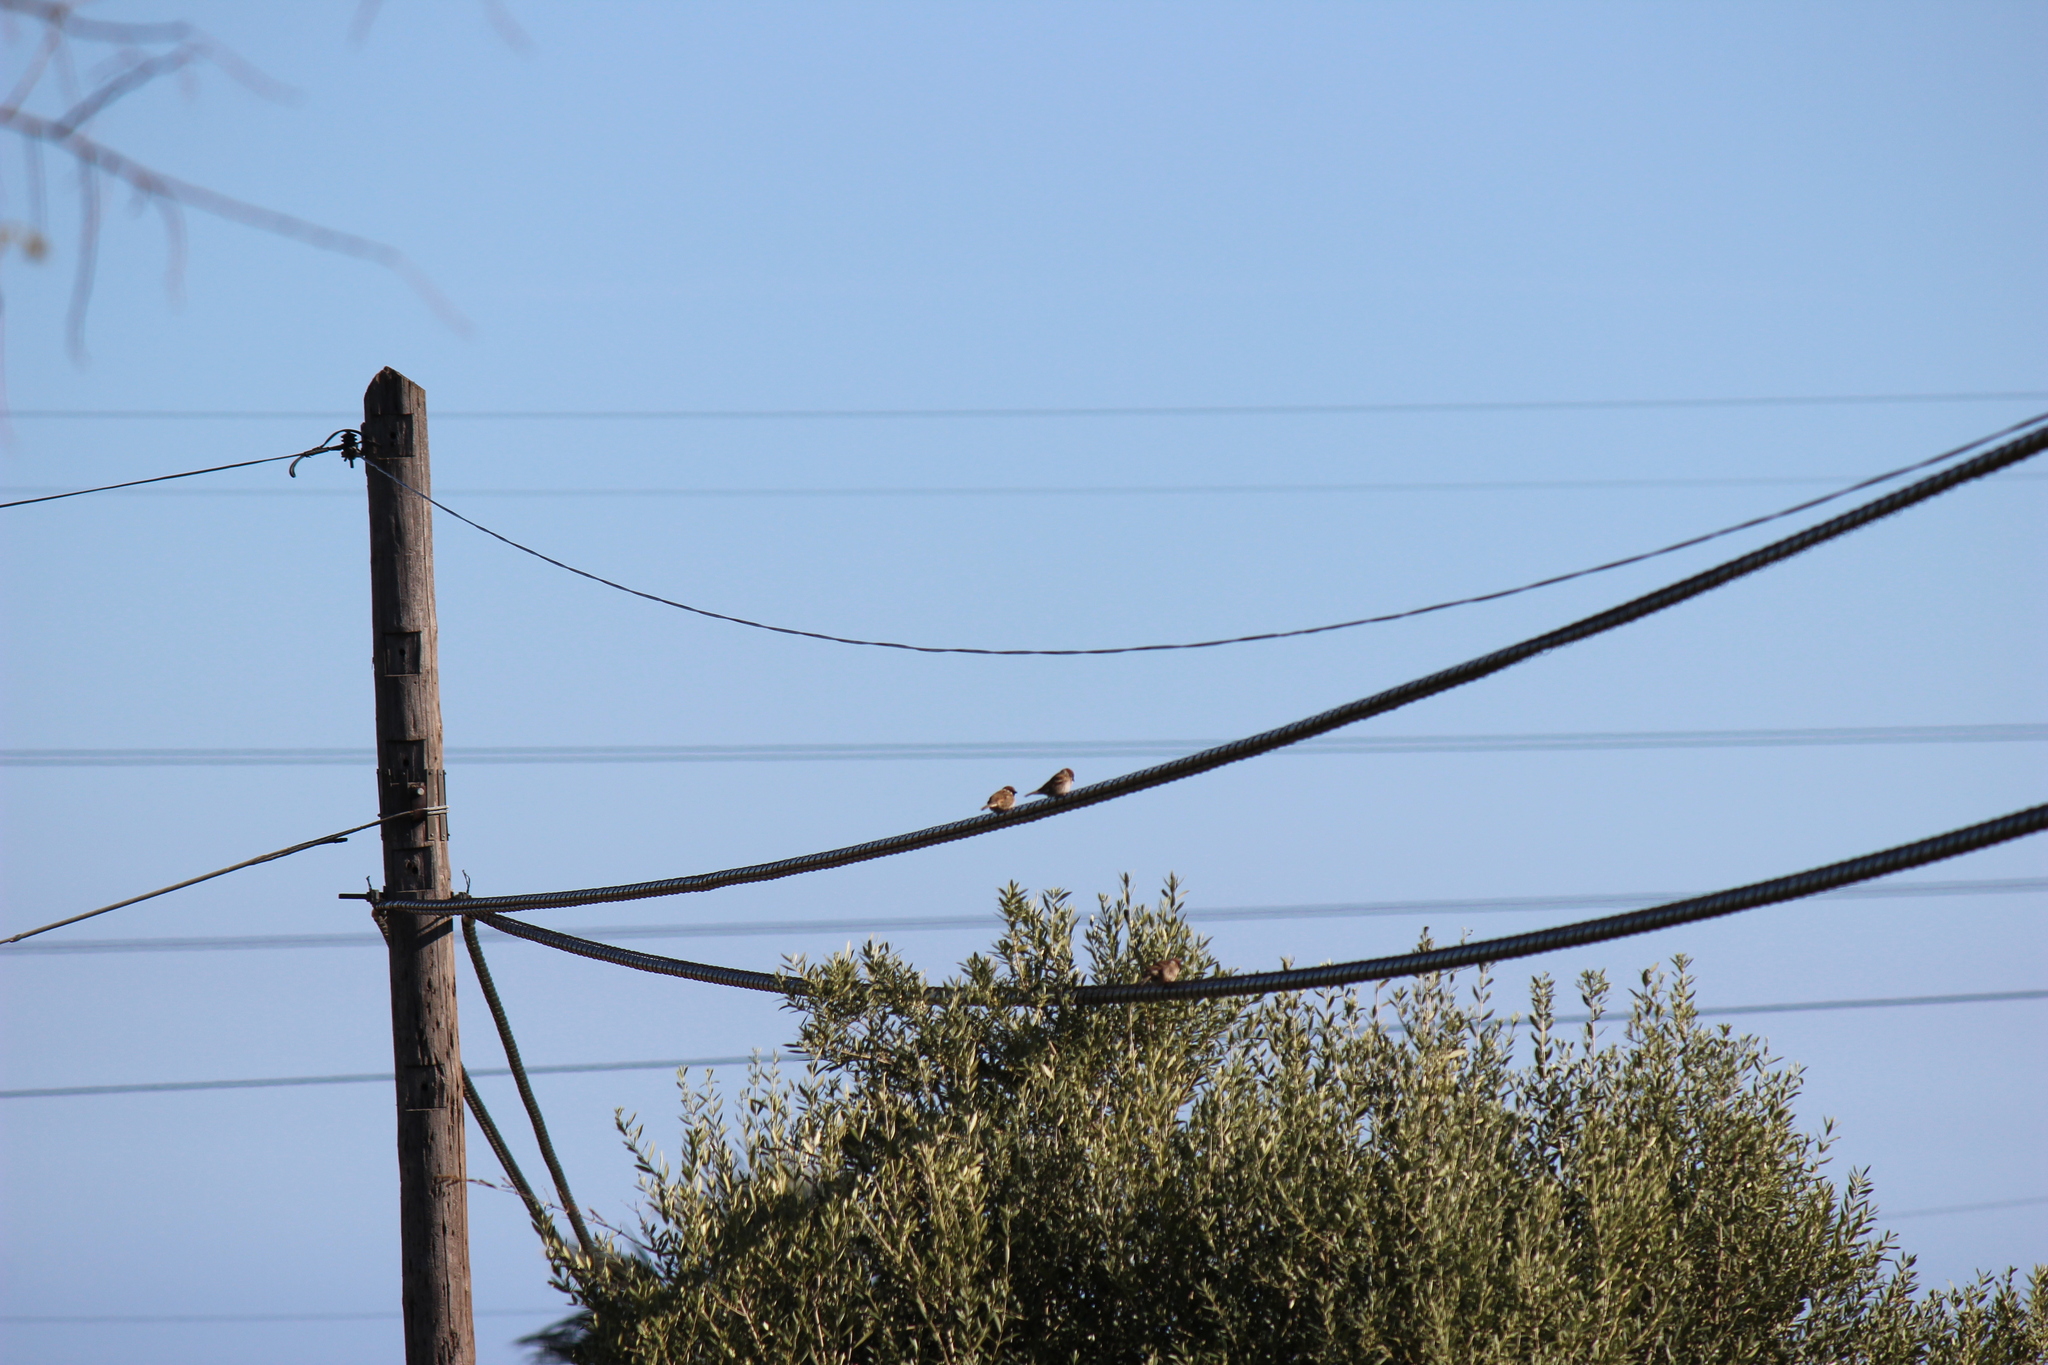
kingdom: Animalia
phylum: Chordata
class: Aves
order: Passeriformes
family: Passeridae
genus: Passer
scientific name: Passer montanus
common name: Eurasian tree sparrow
